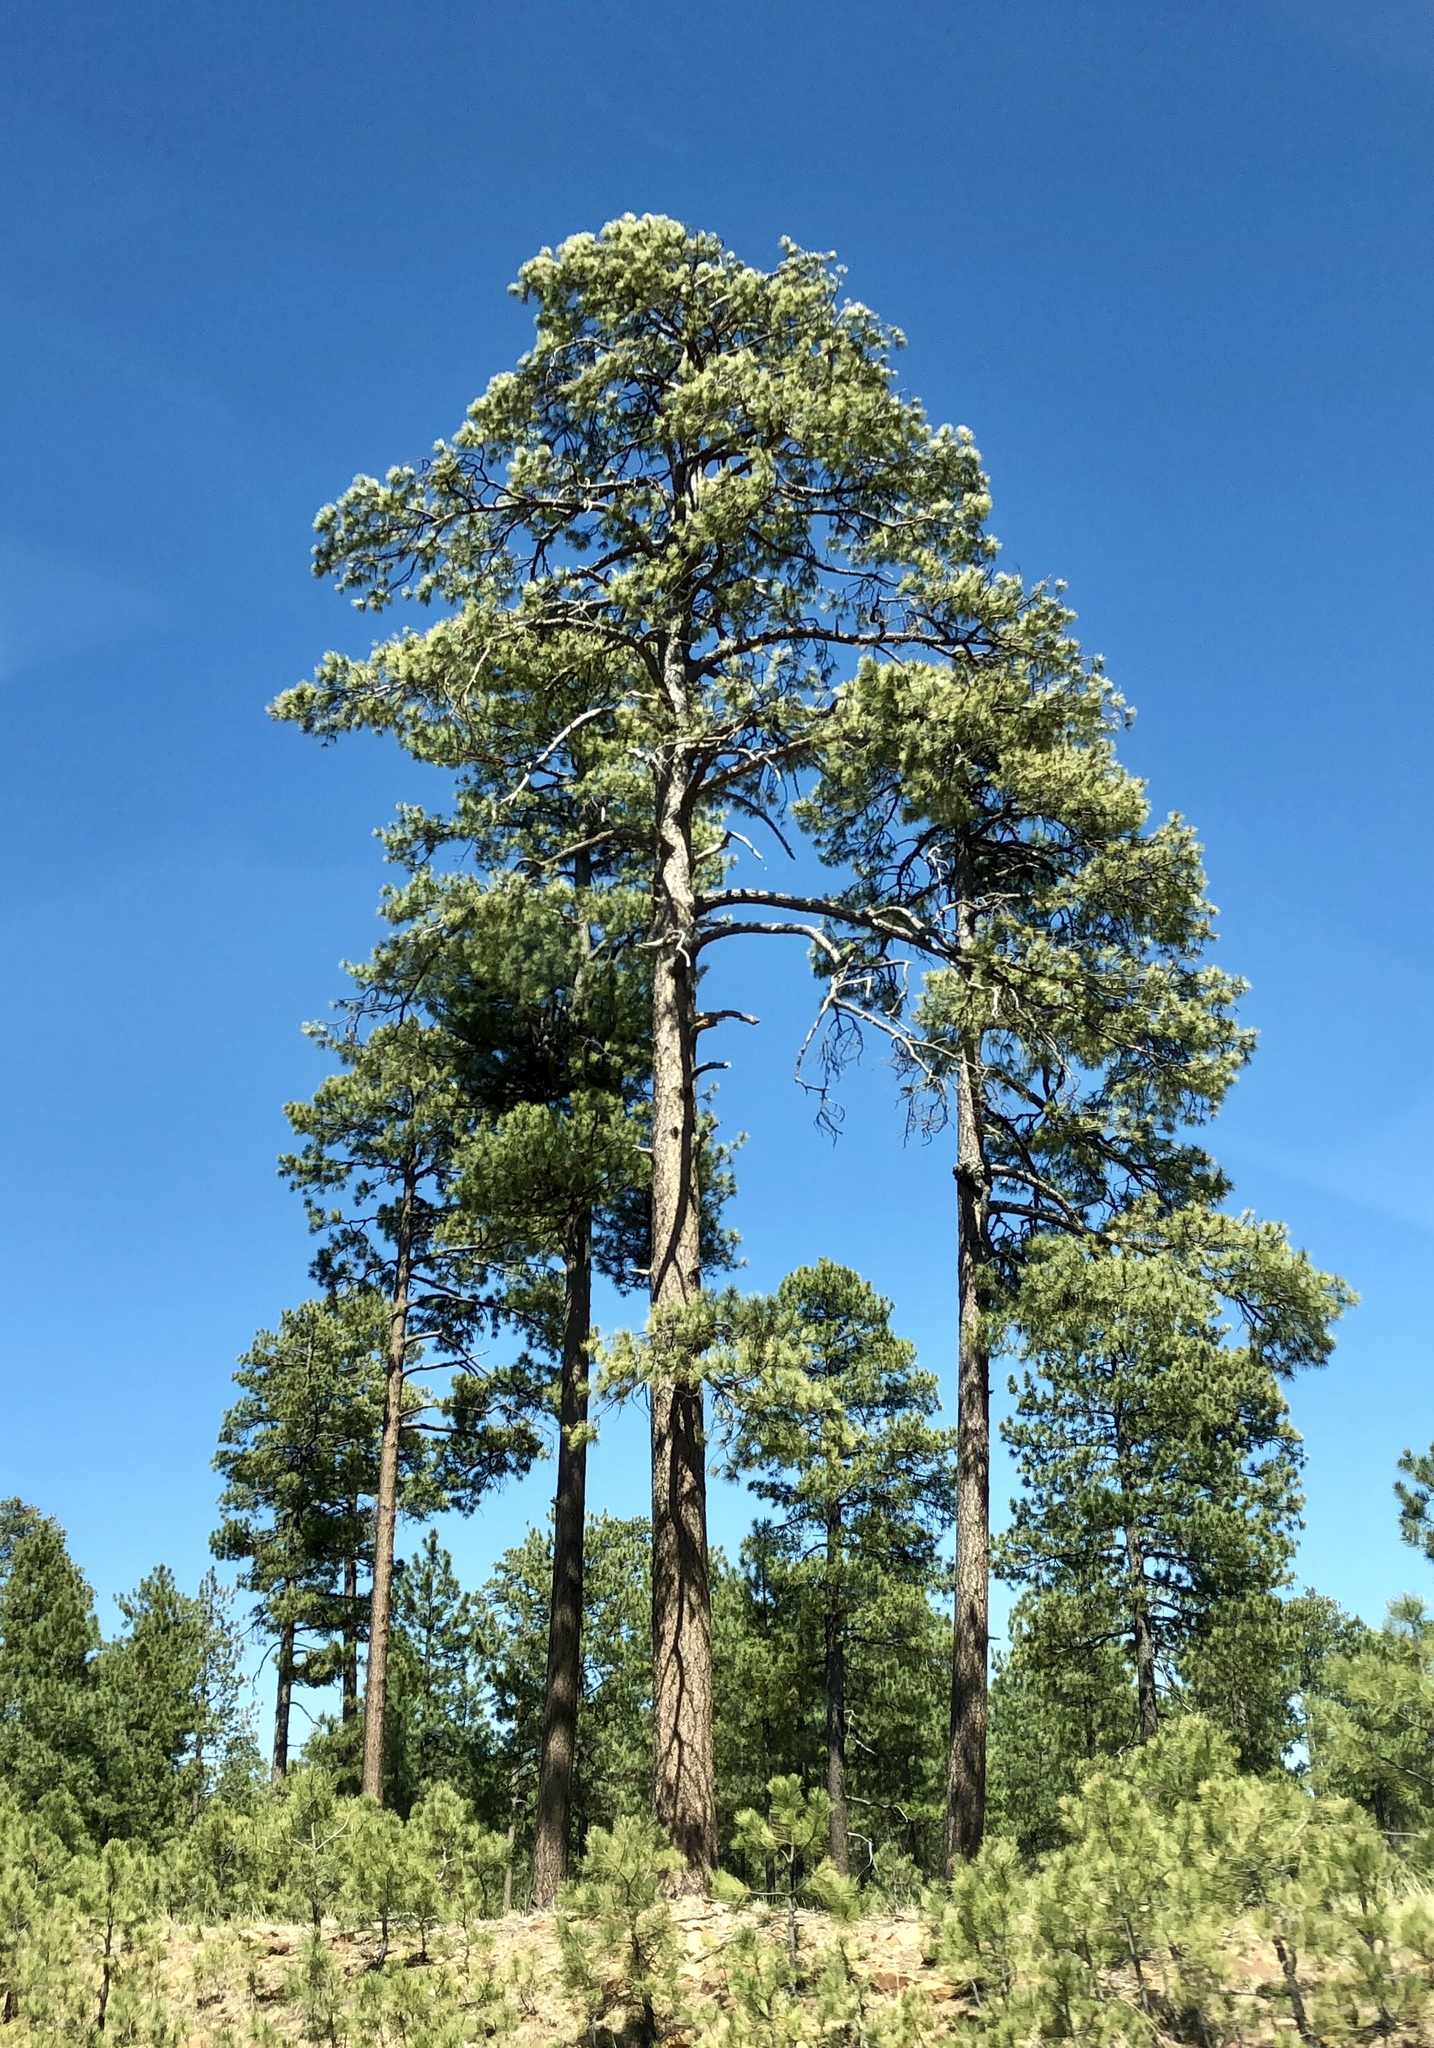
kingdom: Plantae
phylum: Tracheophyta
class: Pinopsida
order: Pinales
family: Pinaceae
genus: Pinus
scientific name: Pinus ponderosa
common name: Western yellow-pine
